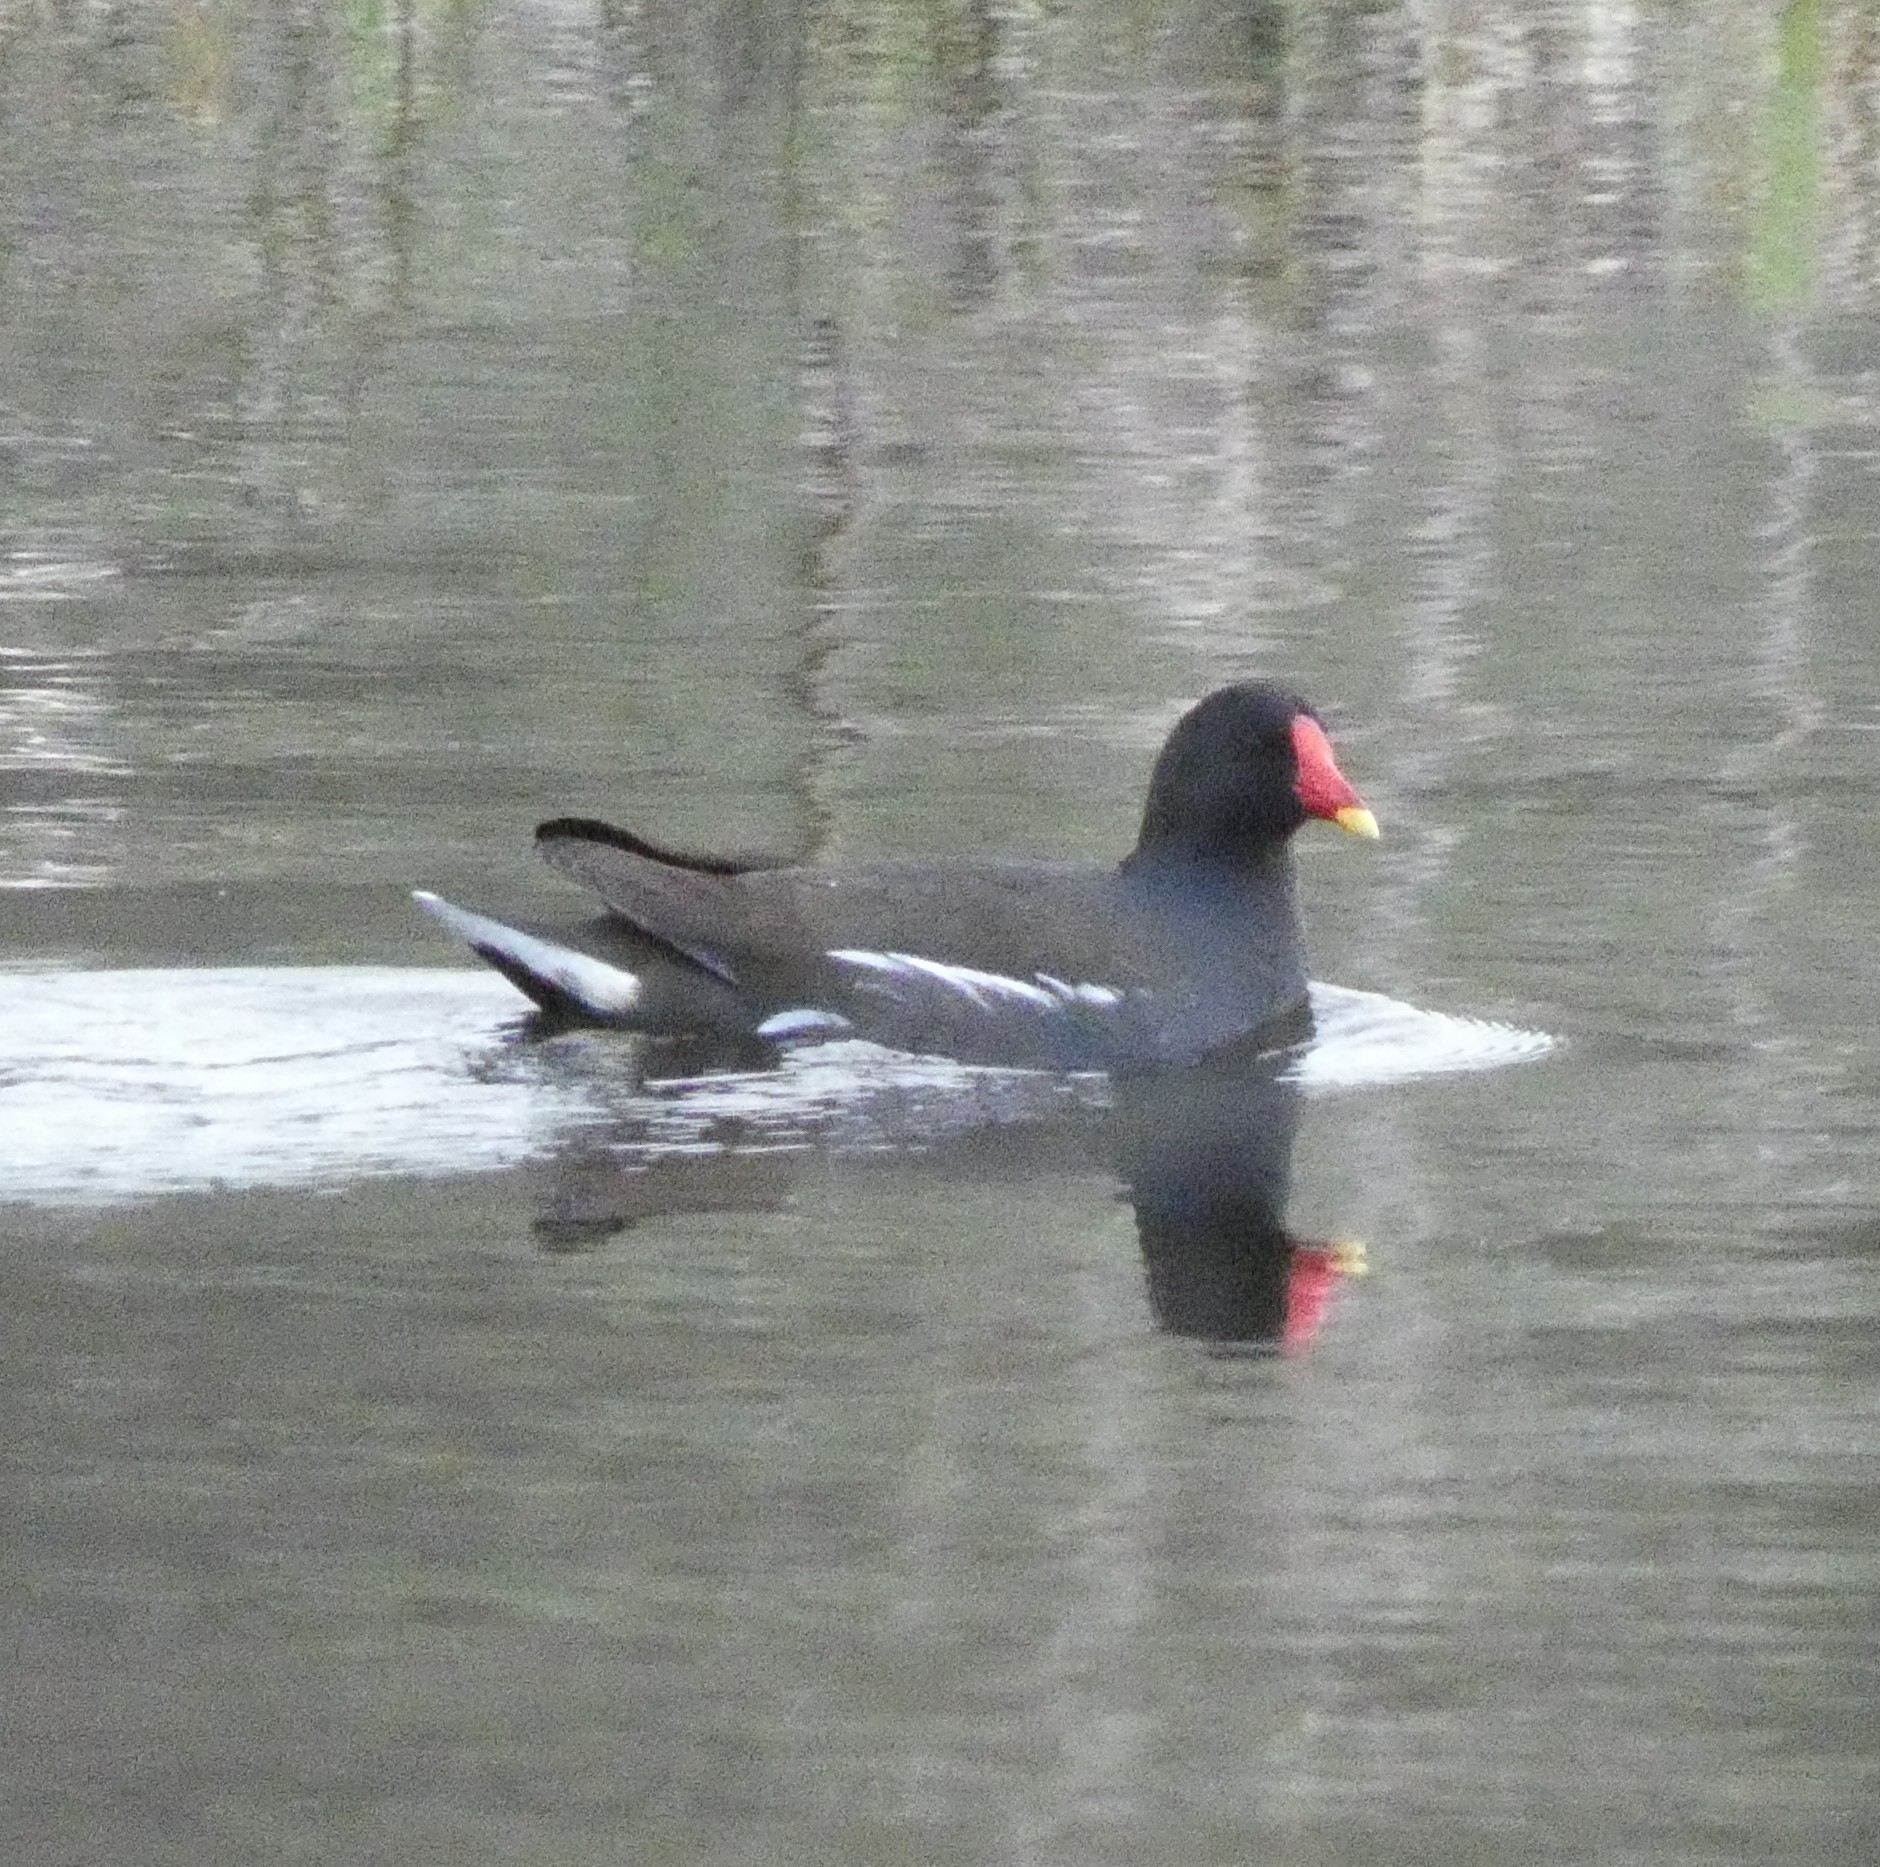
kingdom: Animalia
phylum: Chordata
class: Aves
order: Gruiformes
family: Rallidae
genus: Gallinula
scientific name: Gallinula chloropus
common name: Common moorhen
